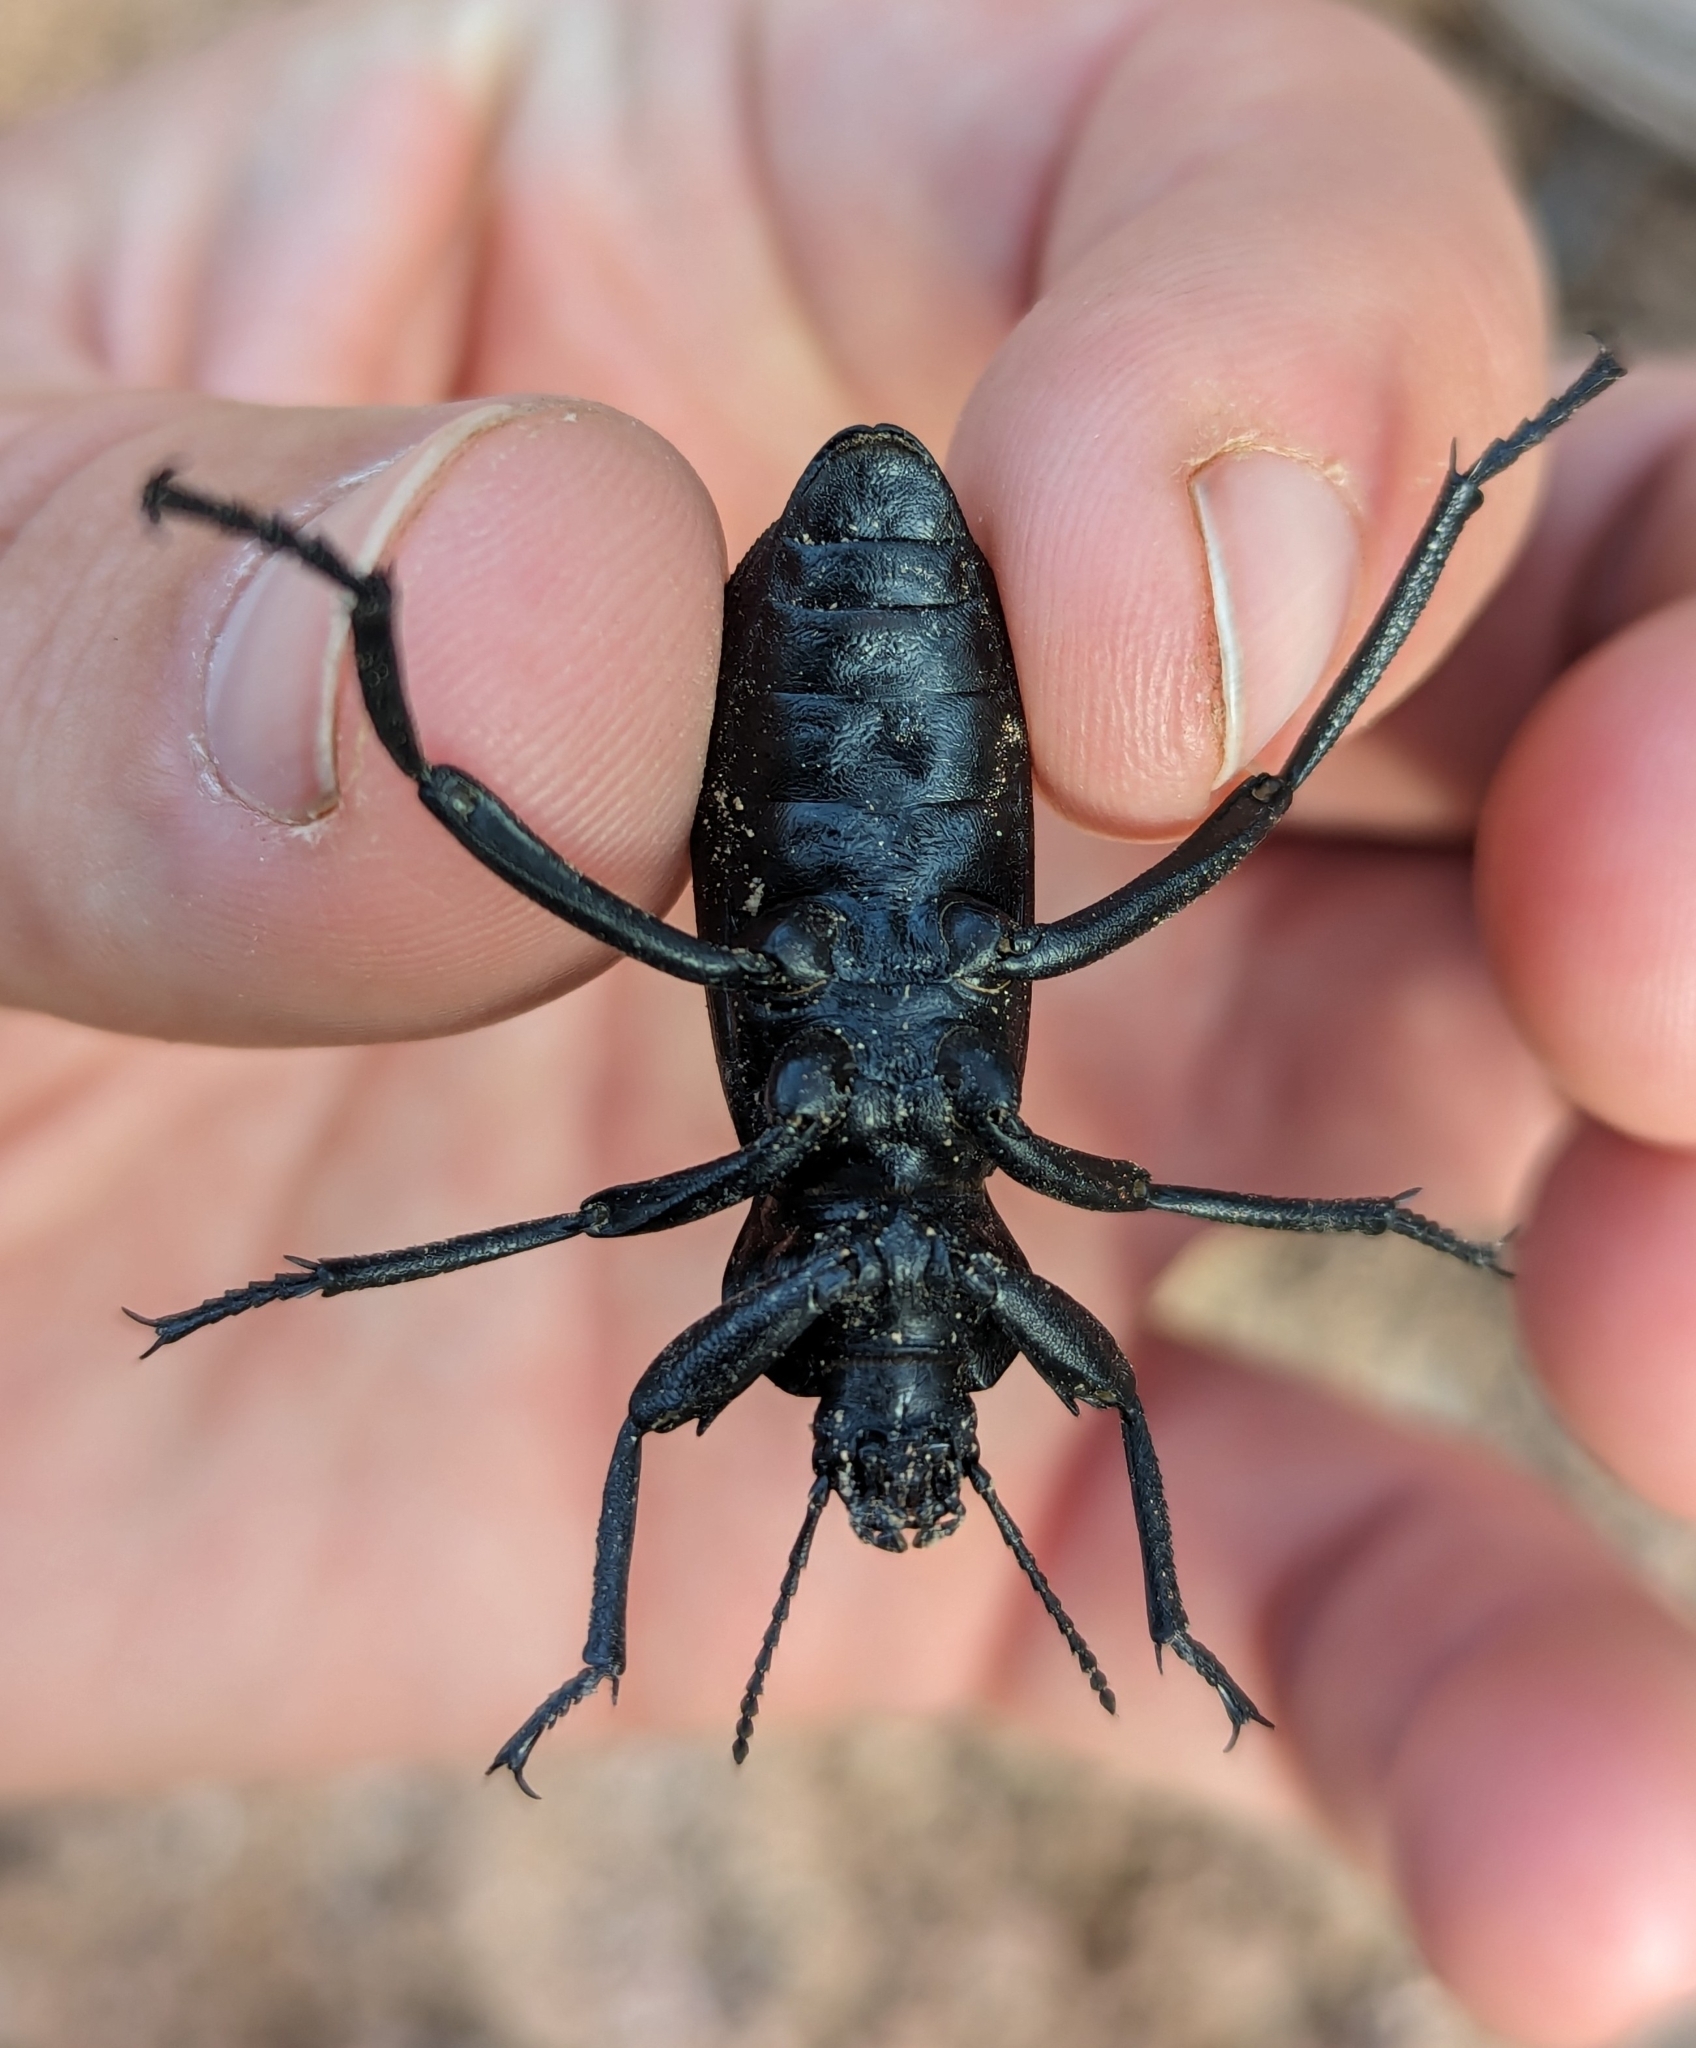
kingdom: Animalia
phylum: Arthropoda
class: Insecta
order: Coleoptera
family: Tenebrionidae
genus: Eleodes
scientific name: Eleodes obscura
